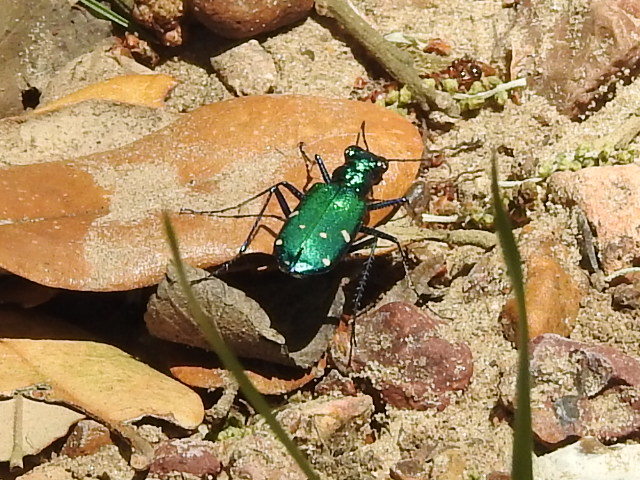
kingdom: Animalia
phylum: Arthropoda
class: Insecta
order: Coleoptera
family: Carabidae
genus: Cicindela
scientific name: Cicindela sexguttata
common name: Six-spotted tiger beetle
